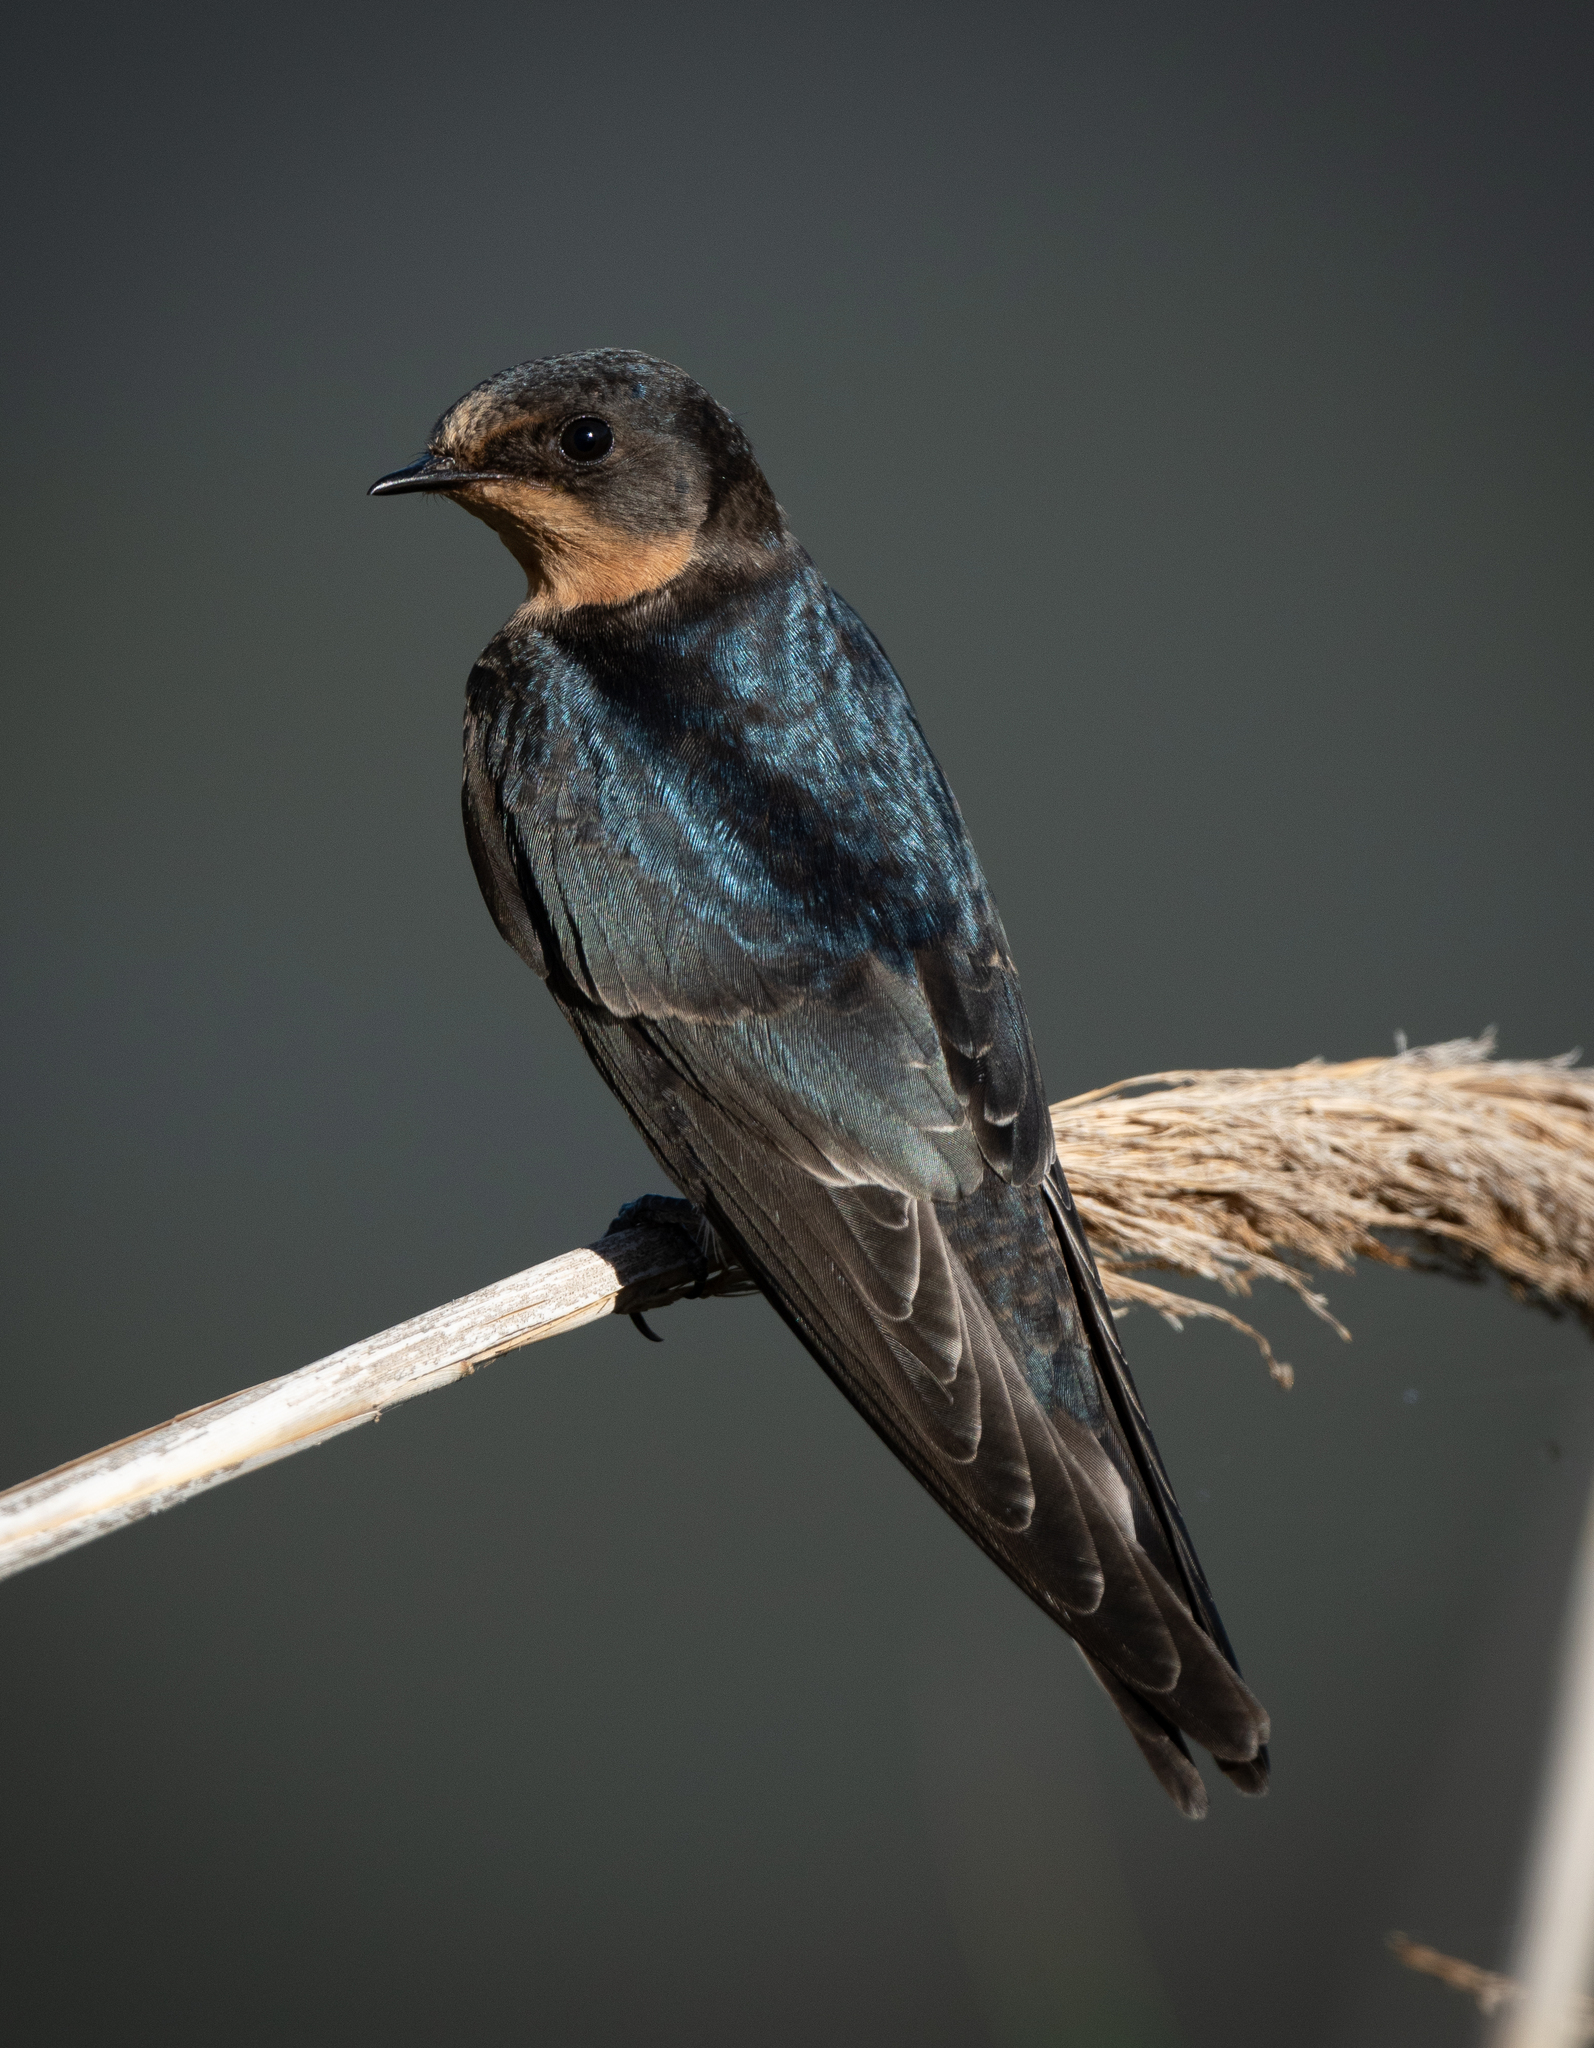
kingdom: Animalia
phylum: Chordata
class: Aves
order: Passeriformes
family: Hirundinidae
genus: Hirundo
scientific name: Hirundo rustica
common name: Barn swallow
